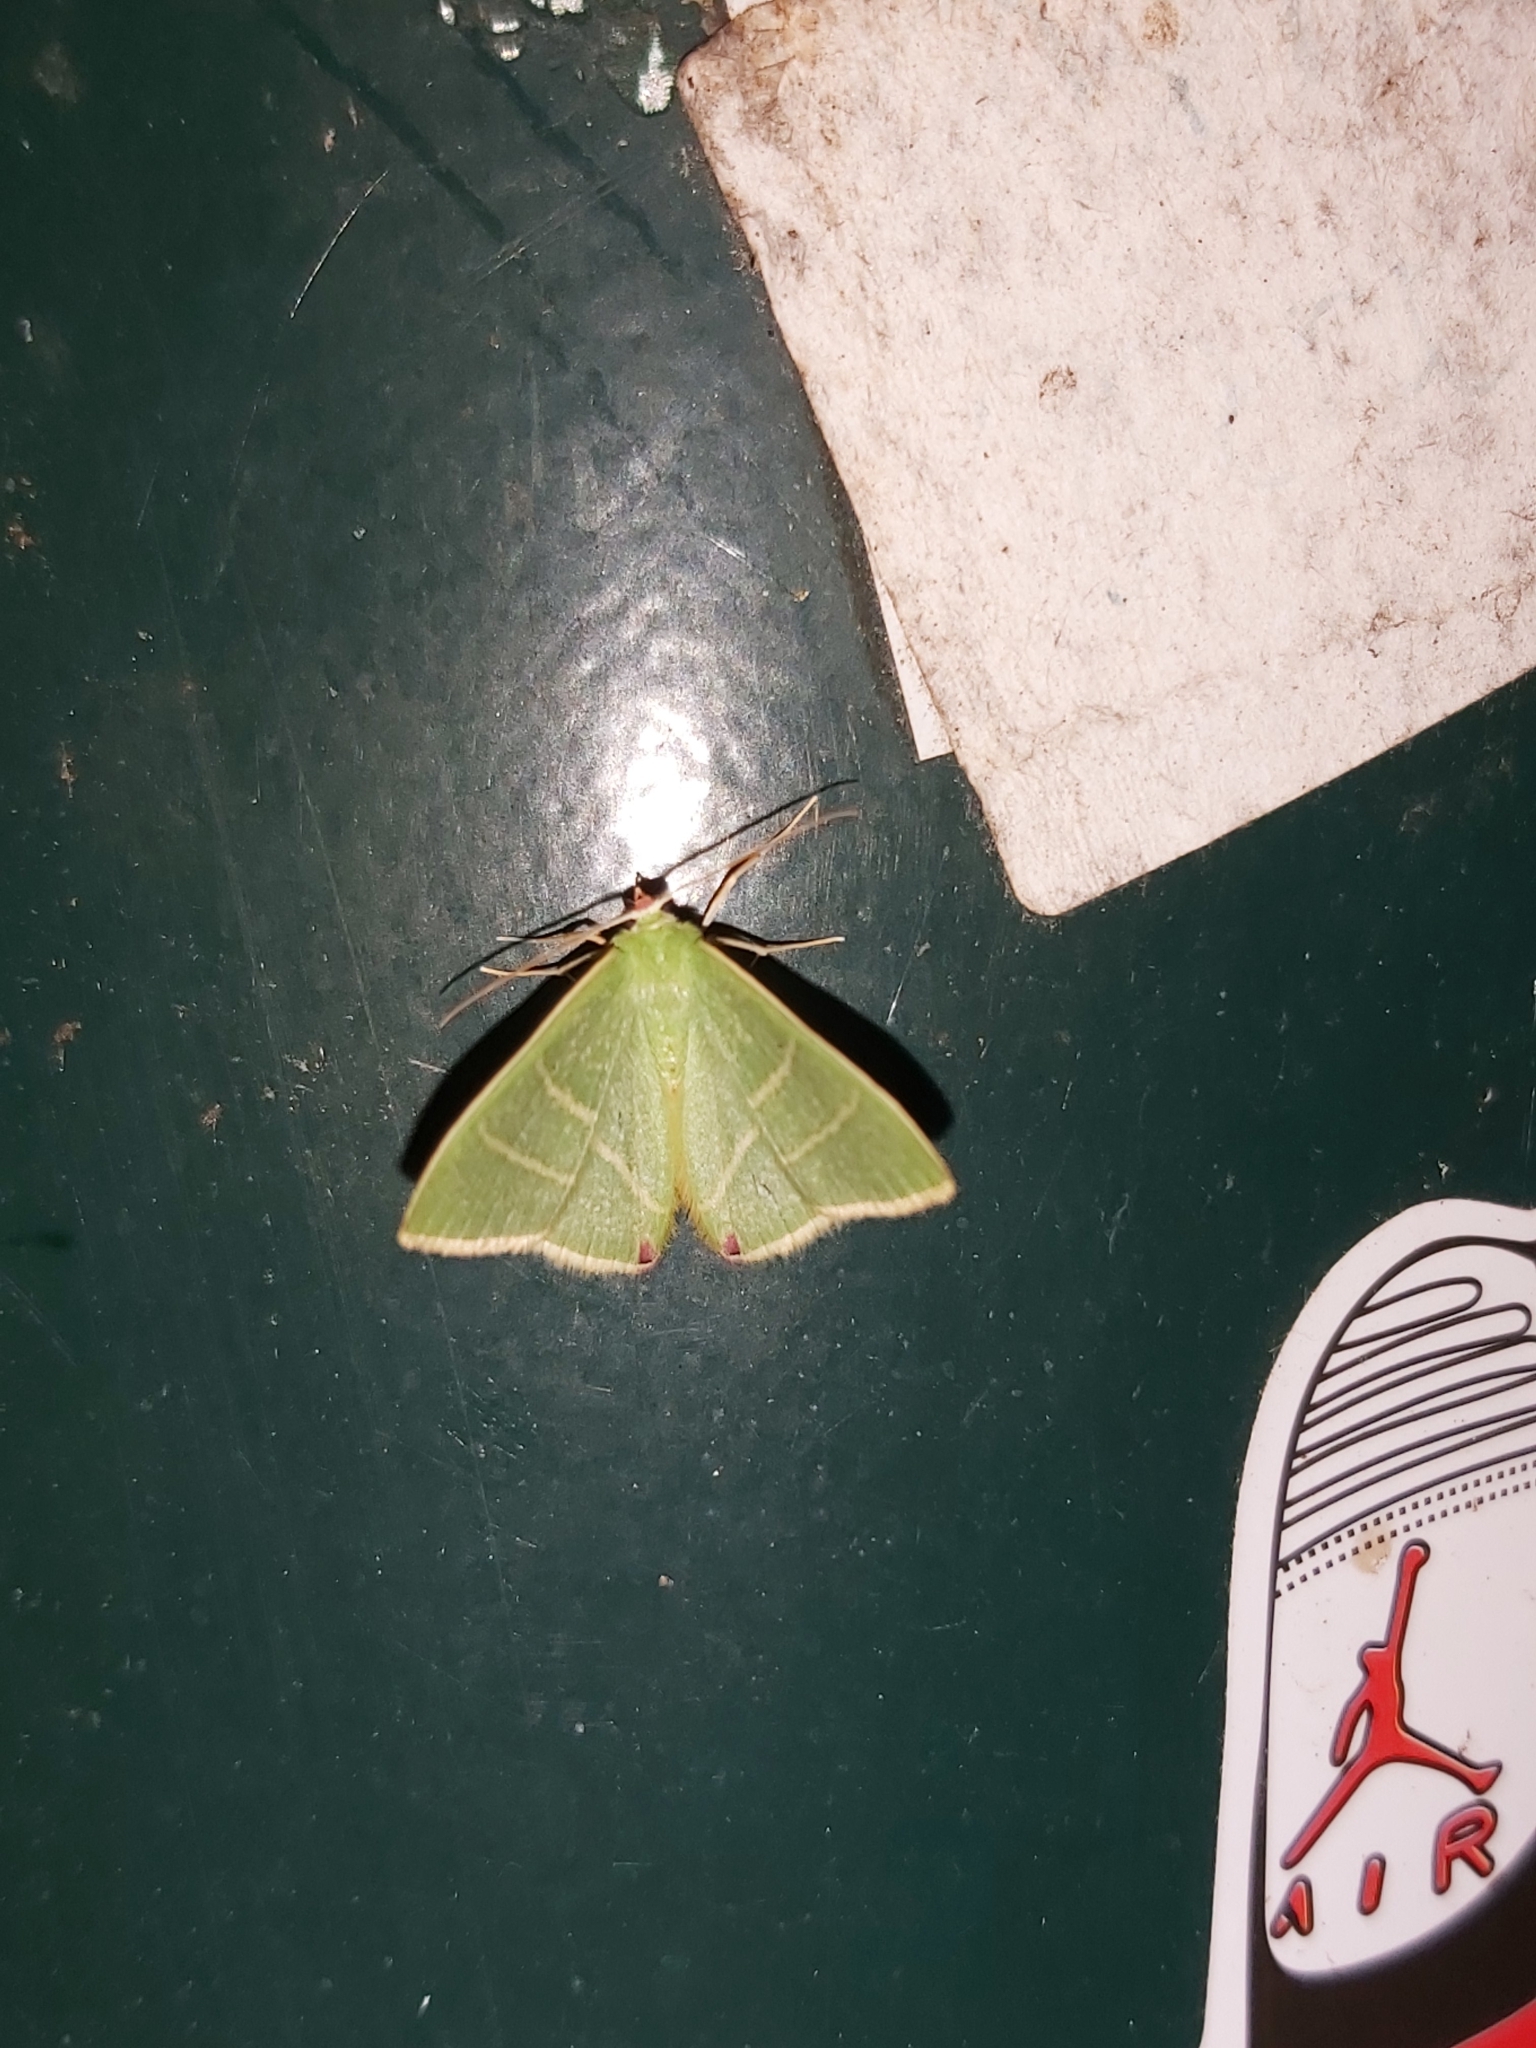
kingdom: Animalia
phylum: Arthropoda
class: Insecta
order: Lepidoptera
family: Geometridae
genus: Urolitha
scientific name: Urolitha bipunctifera
